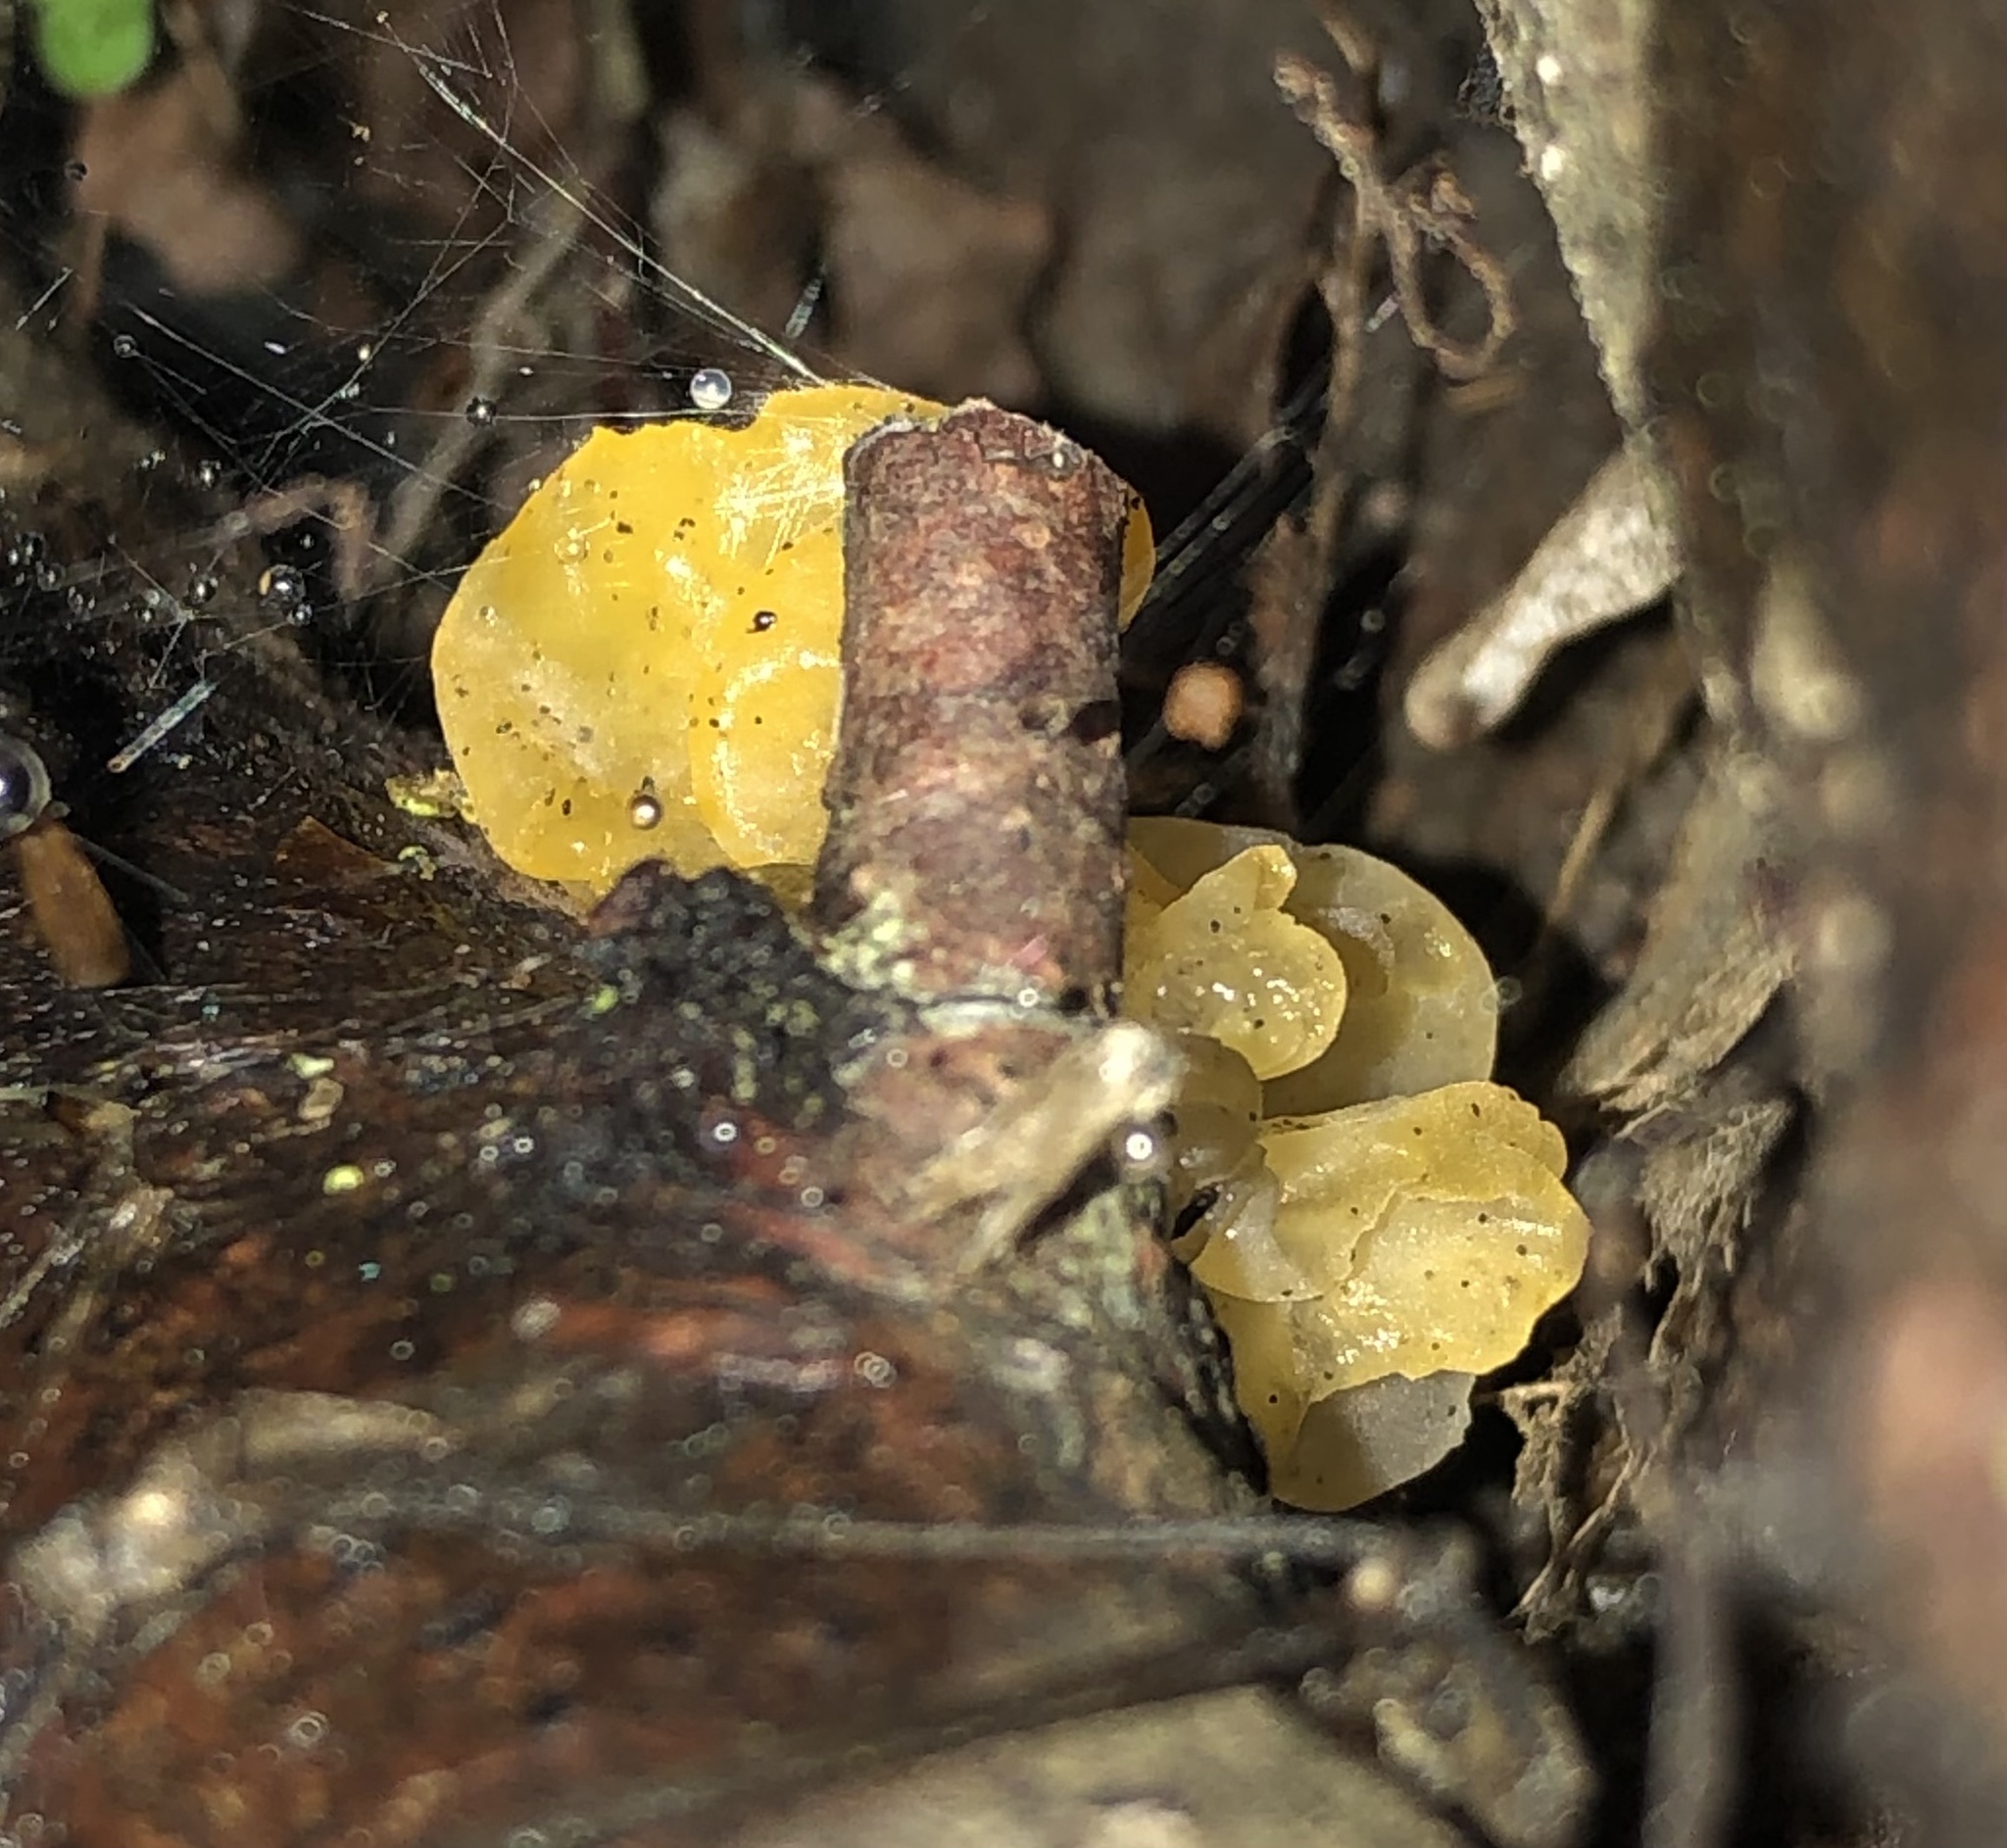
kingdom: Fungi
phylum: Basidiomycota
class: Tremellomycetes
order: Tremellales
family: Tremellaceae
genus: Tremella
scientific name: Tremella mesenterica
